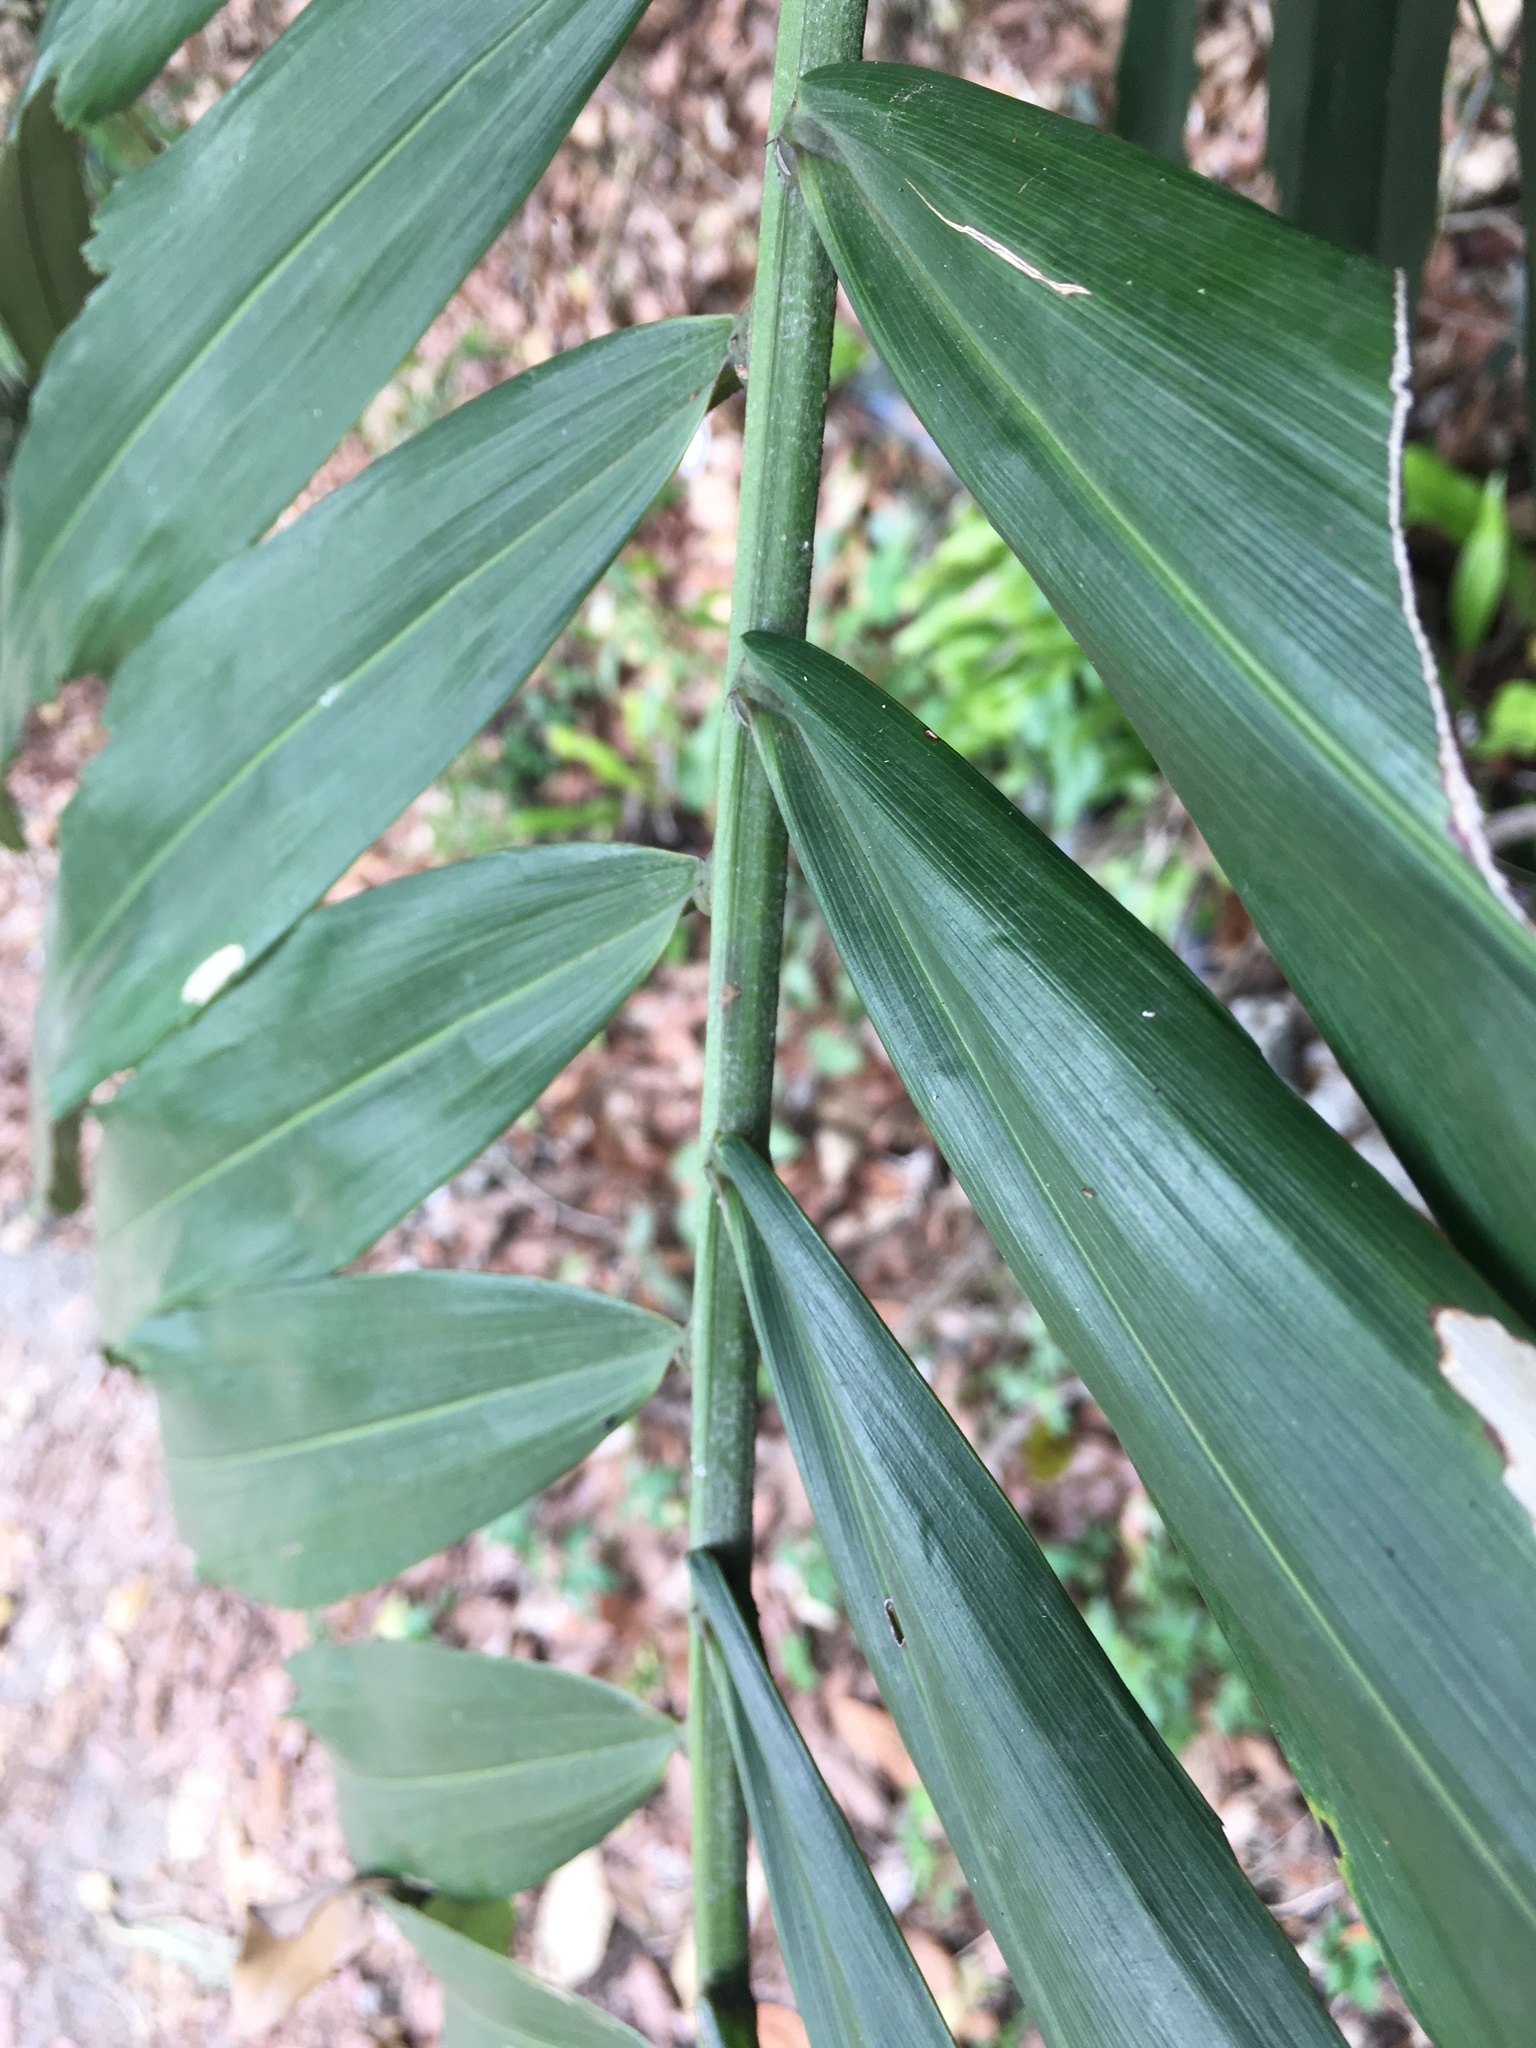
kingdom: Plantae
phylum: Tracheophyta
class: Liliopsida
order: Arecales
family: Arecaceae
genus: Arenga
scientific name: Arenga engleri
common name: Formosan sugar palm
